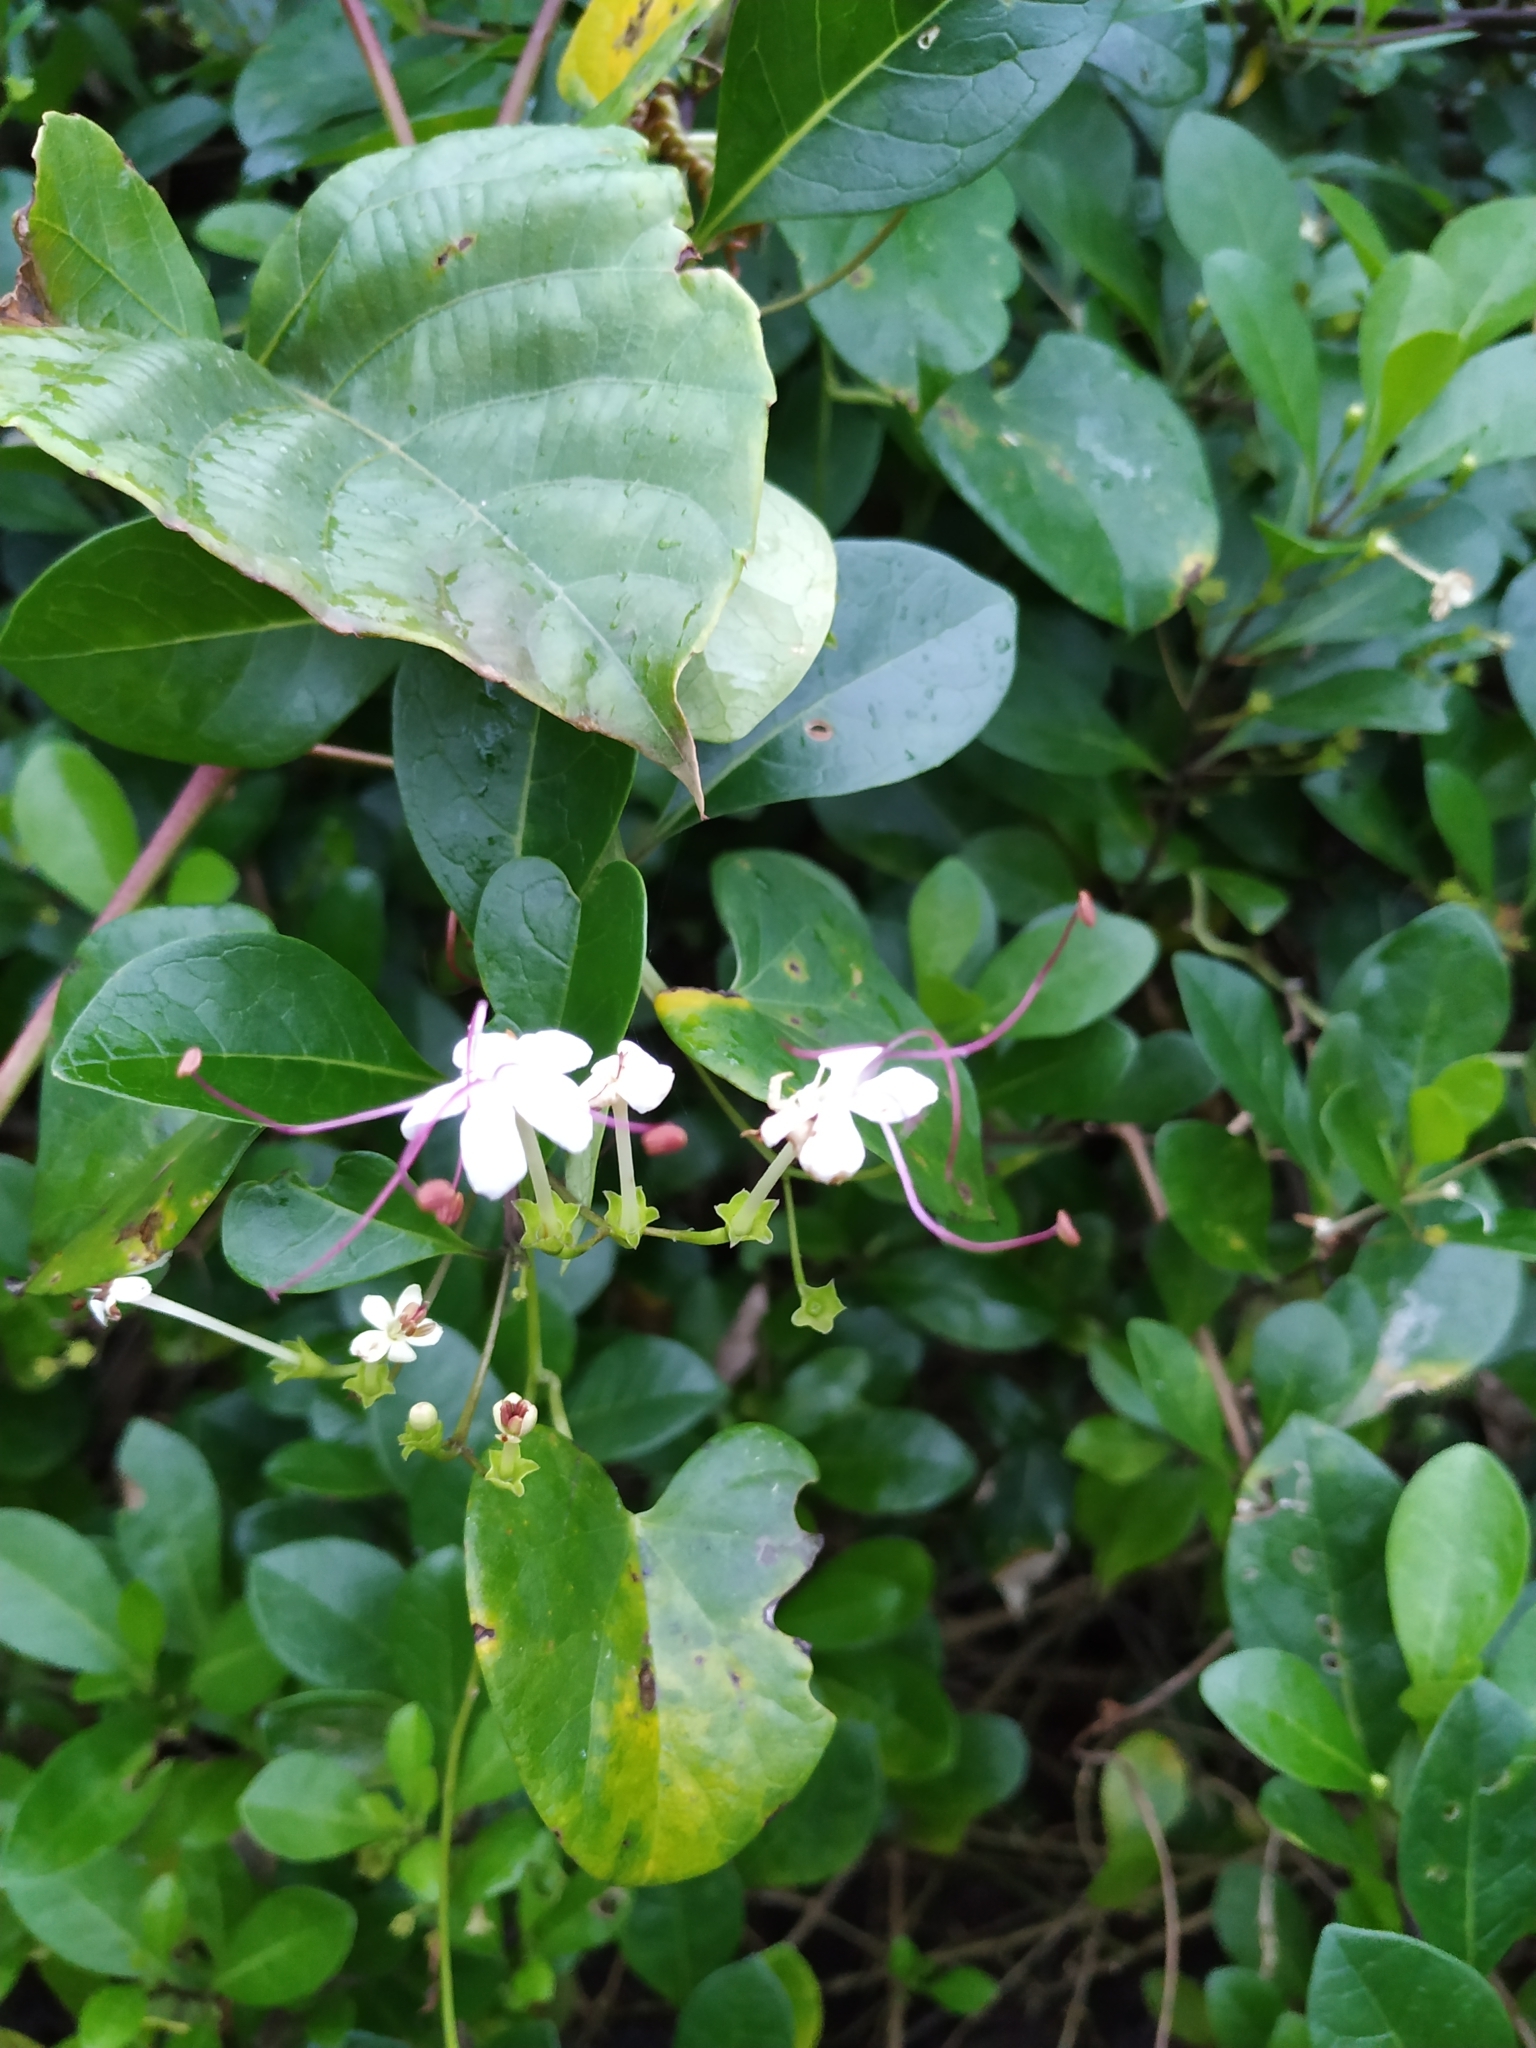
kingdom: Plantae
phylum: Tracheophyta
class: Magnoliopsida
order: Lamiales
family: Lamiaceae
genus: Volkameria
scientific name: Volkameria inermis
